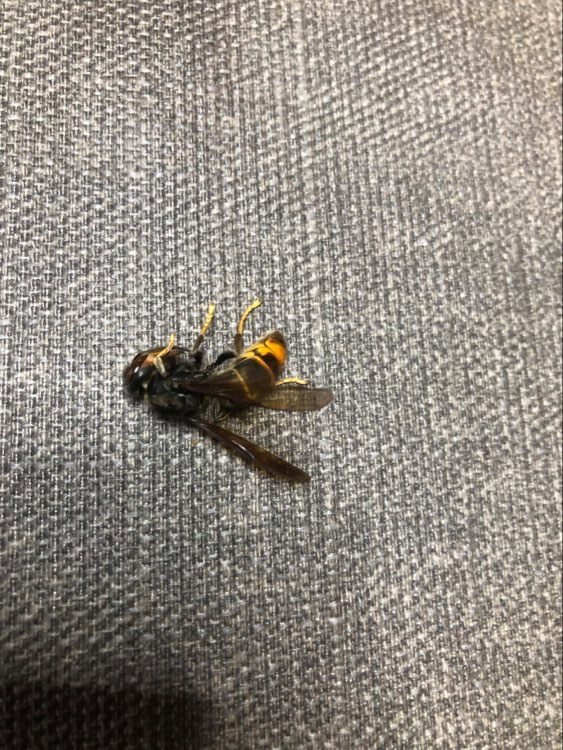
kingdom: Animalia
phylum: Arthropoda
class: Insecta
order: Hymenoptera
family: Vespidae
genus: Vespa
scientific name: Vespa velutina
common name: Asian hornet
